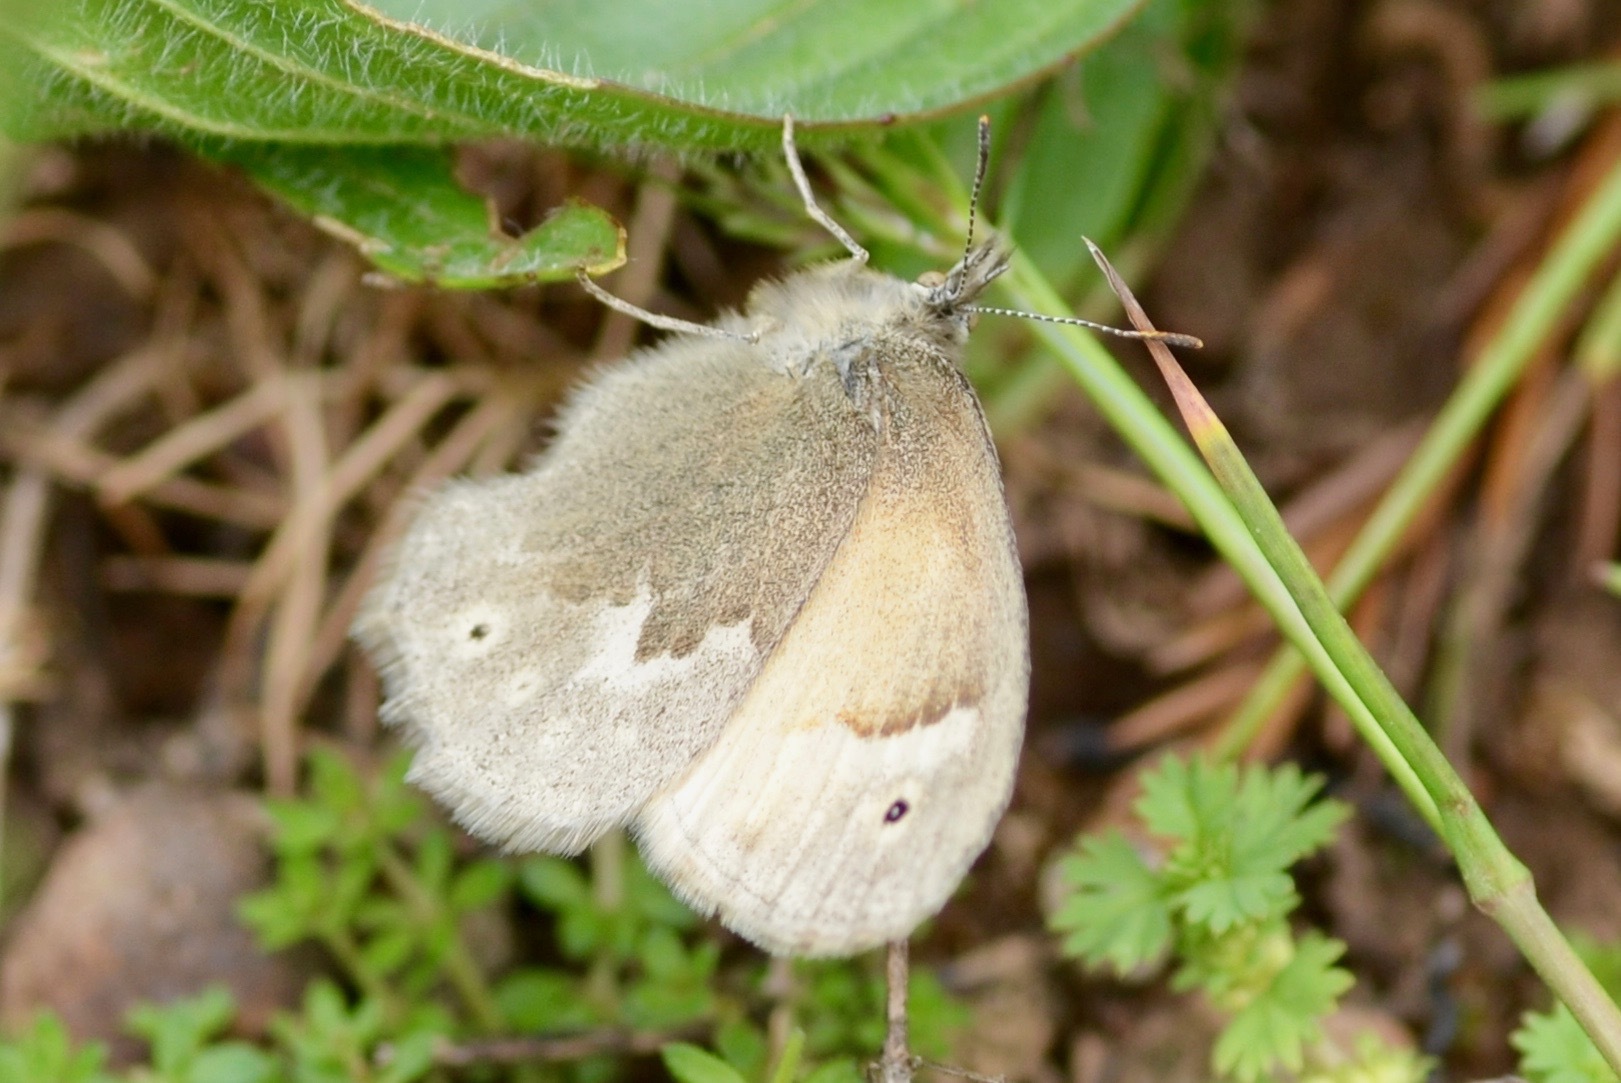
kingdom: Animalia
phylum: Arthropoda
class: Insecta
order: Lepidoptera
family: Nymphalidae
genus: Coenonympha
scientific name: Coenonympha california
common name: Common ringlet
